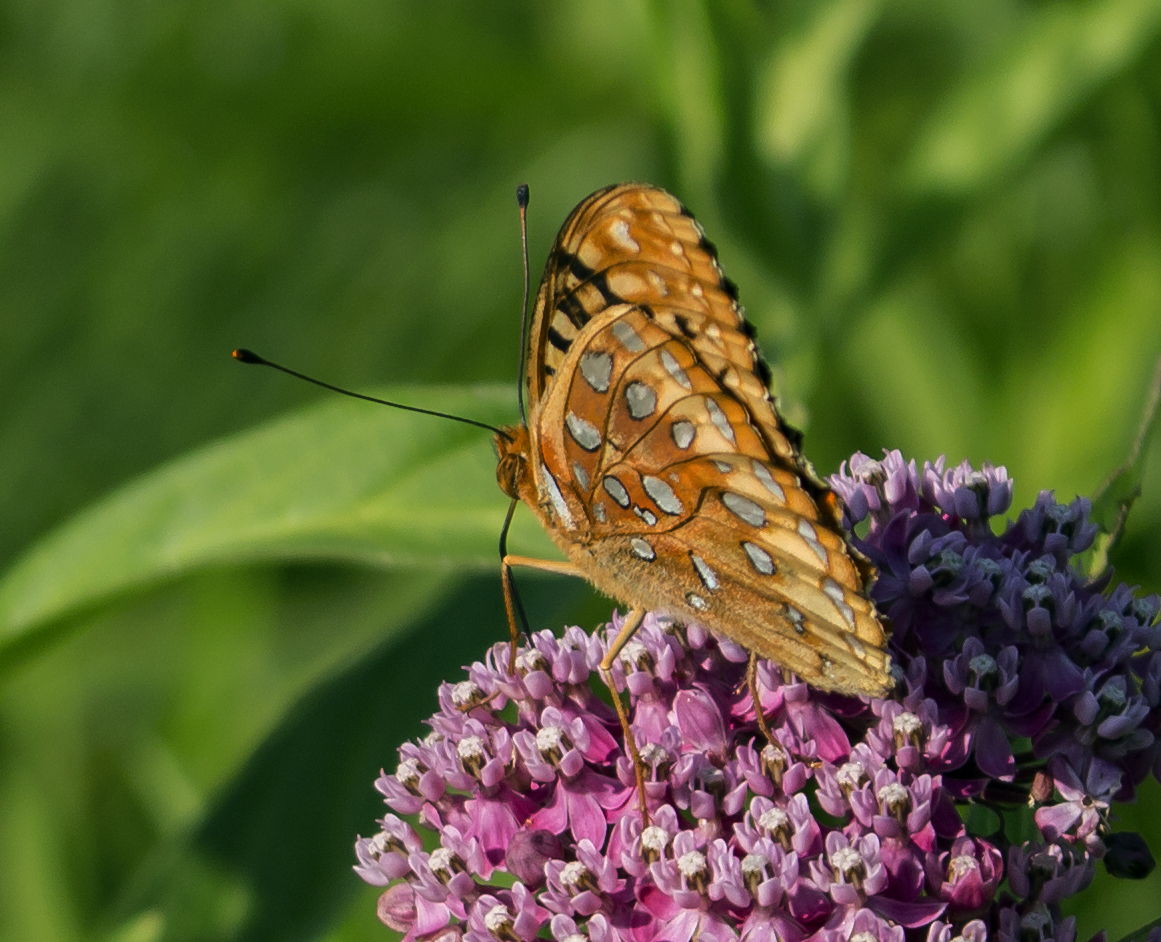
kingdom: Animalia
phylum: Arthropoda
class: Insecta
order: Lepidoptera
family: Nymphalidae
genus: Speyeria
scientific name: Speyeria cybele
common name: Great spangled fritillary
